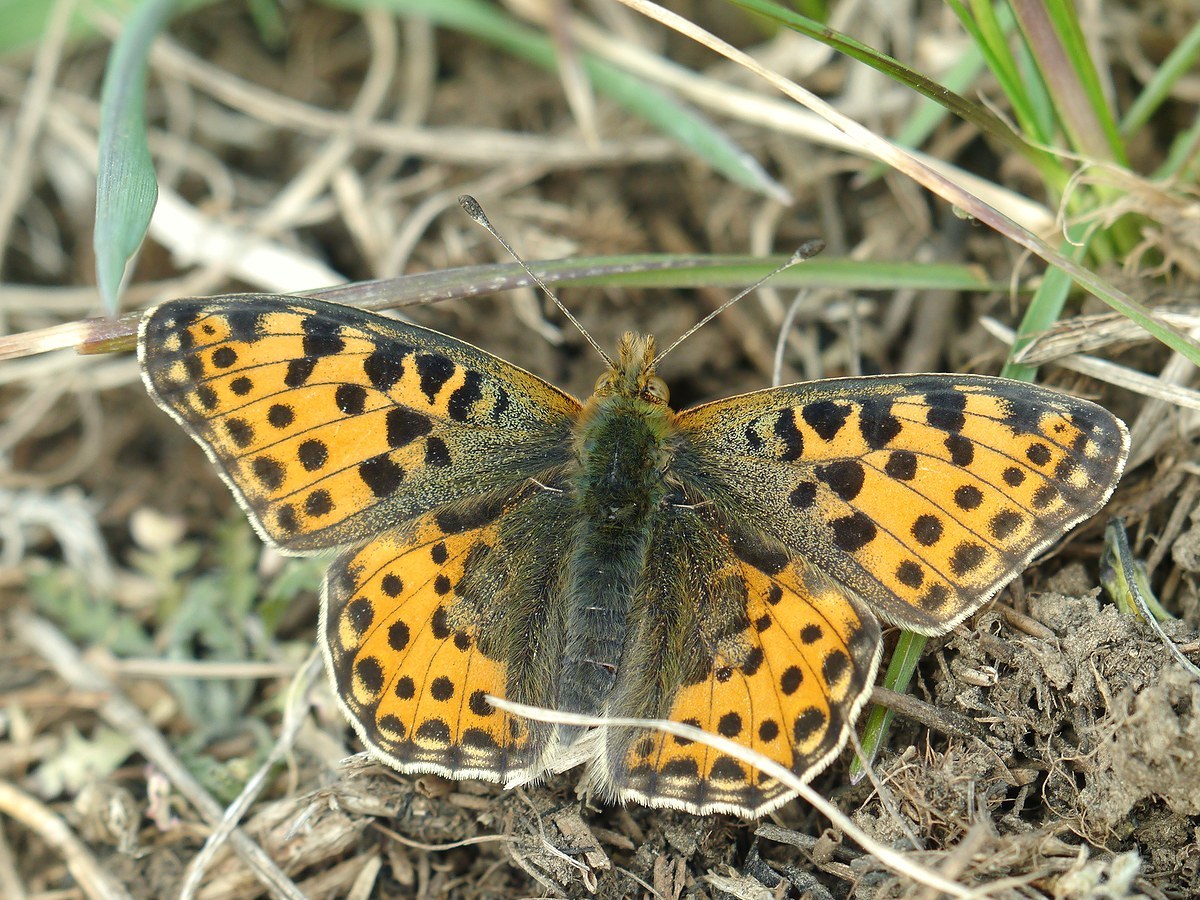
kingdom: Animalia
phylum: Arthropoda
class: Insecta
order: Lepidoptera
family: Nymphalidae
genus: Issoria
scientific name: Issoria lathonia
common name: Queen of spain fritillary
